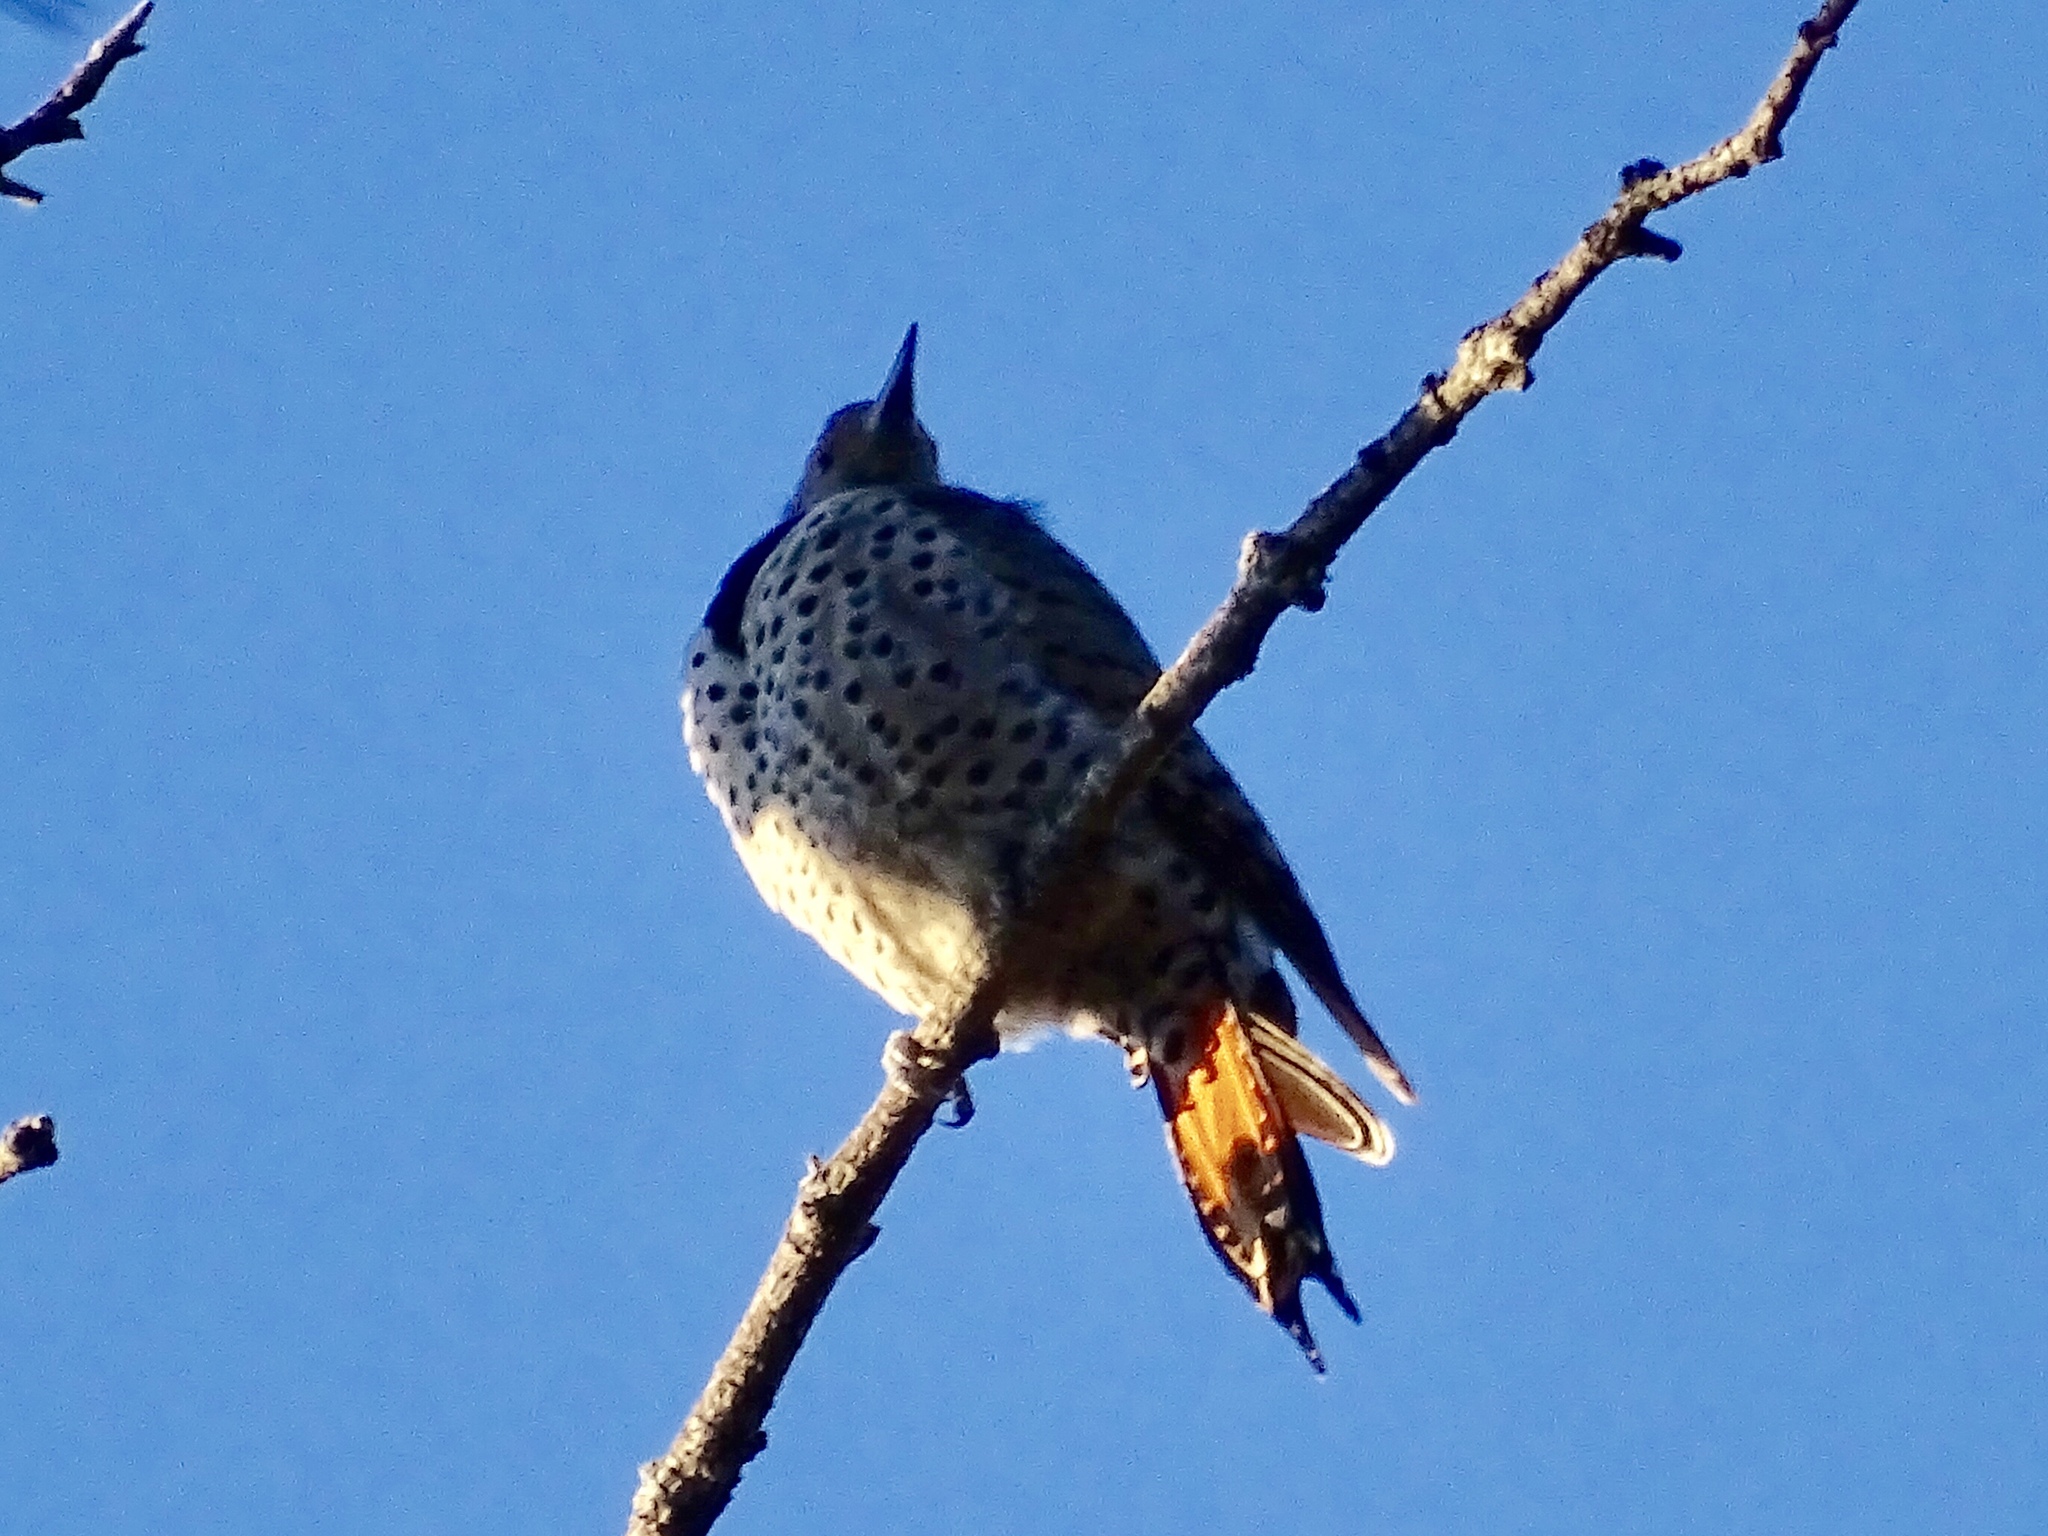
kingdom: Animalia
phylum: Chordata
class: Aves
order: Piciformes
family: Picidae
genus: Colaptes
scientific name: Colaptes auratus
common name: Northern flicker
